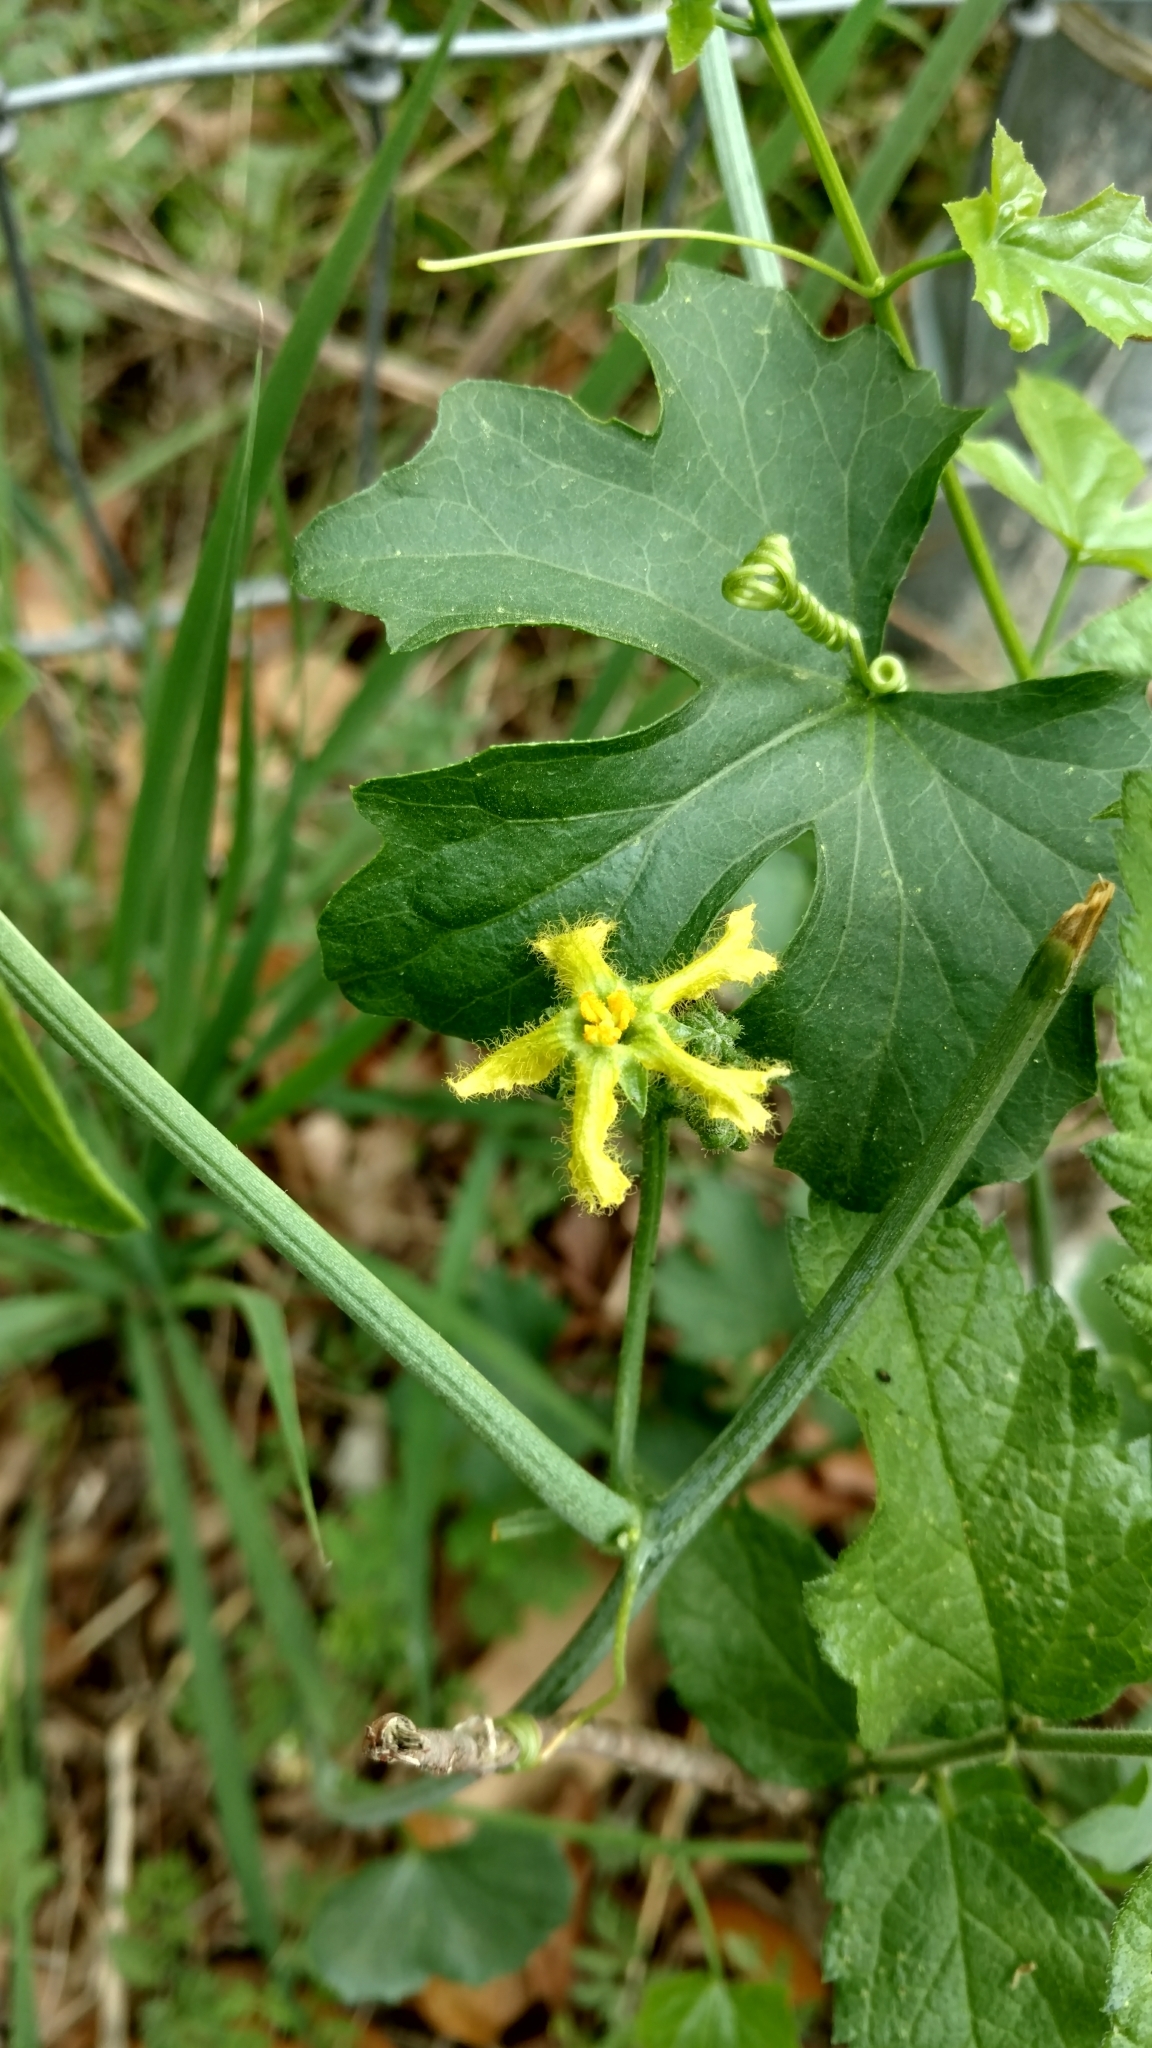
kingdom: Plantae
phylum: Tracheophyta
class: Magnoliopsida
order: Cucurbitales
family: Cucurbitaceae
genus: Ibervillea
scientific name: Ibervillea lindheimeri
